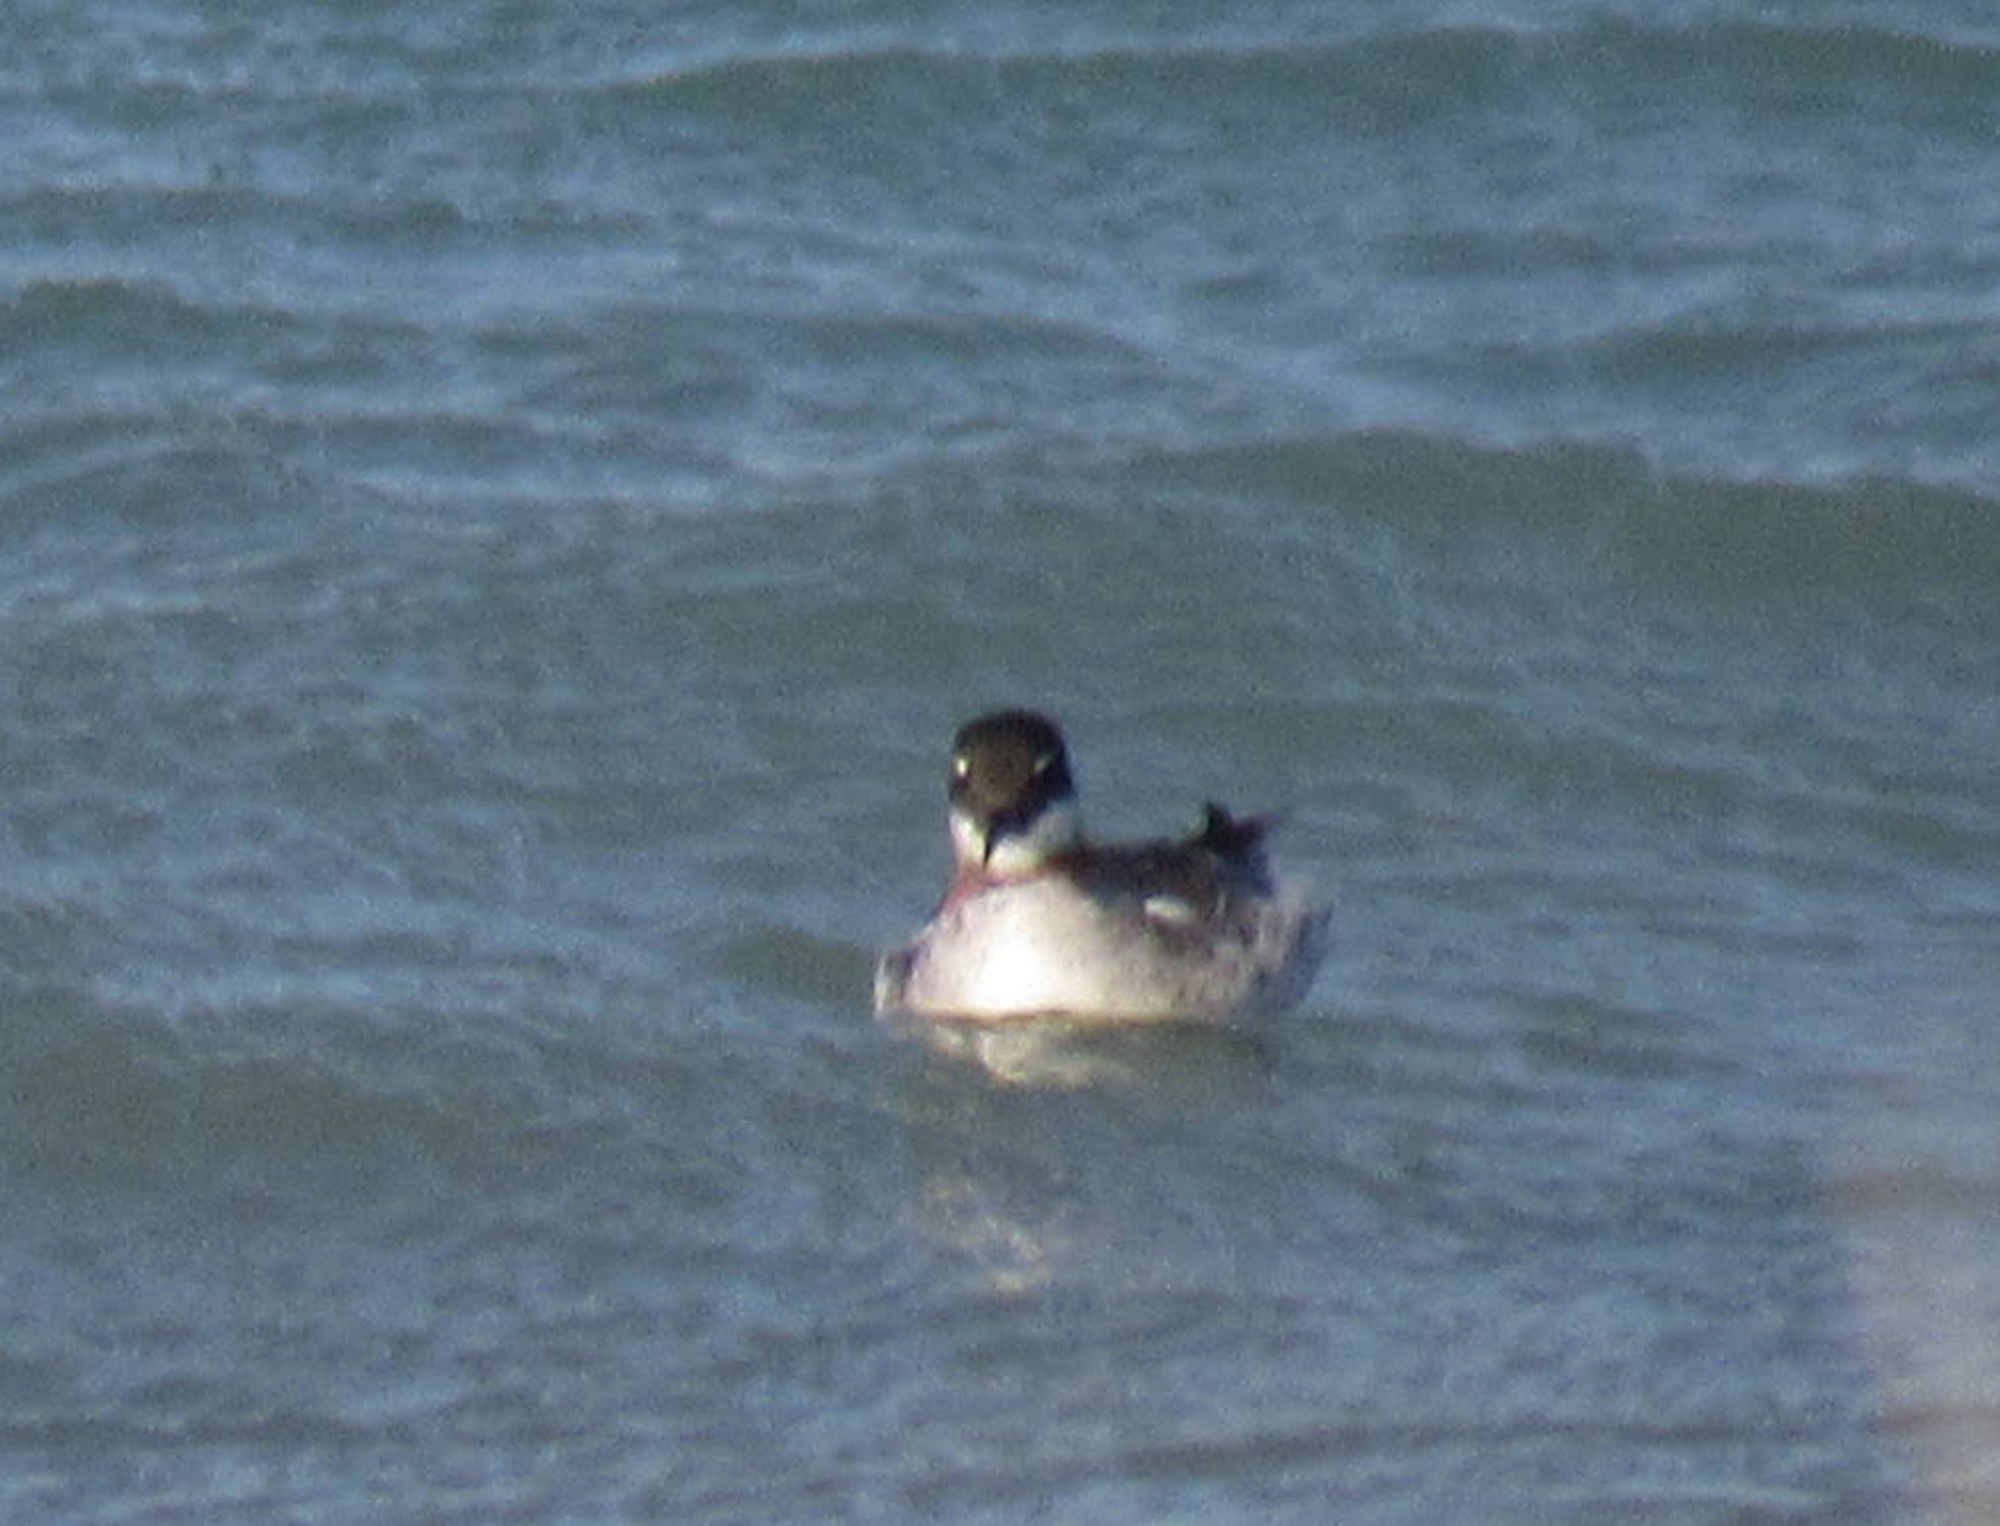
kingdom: Animalia
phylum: Chordata
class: Aves
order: Charadriiformes
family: Scolopacidae
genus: Phalaropus
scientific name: Phalaropus lobatus
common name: Red-necked phalarope
